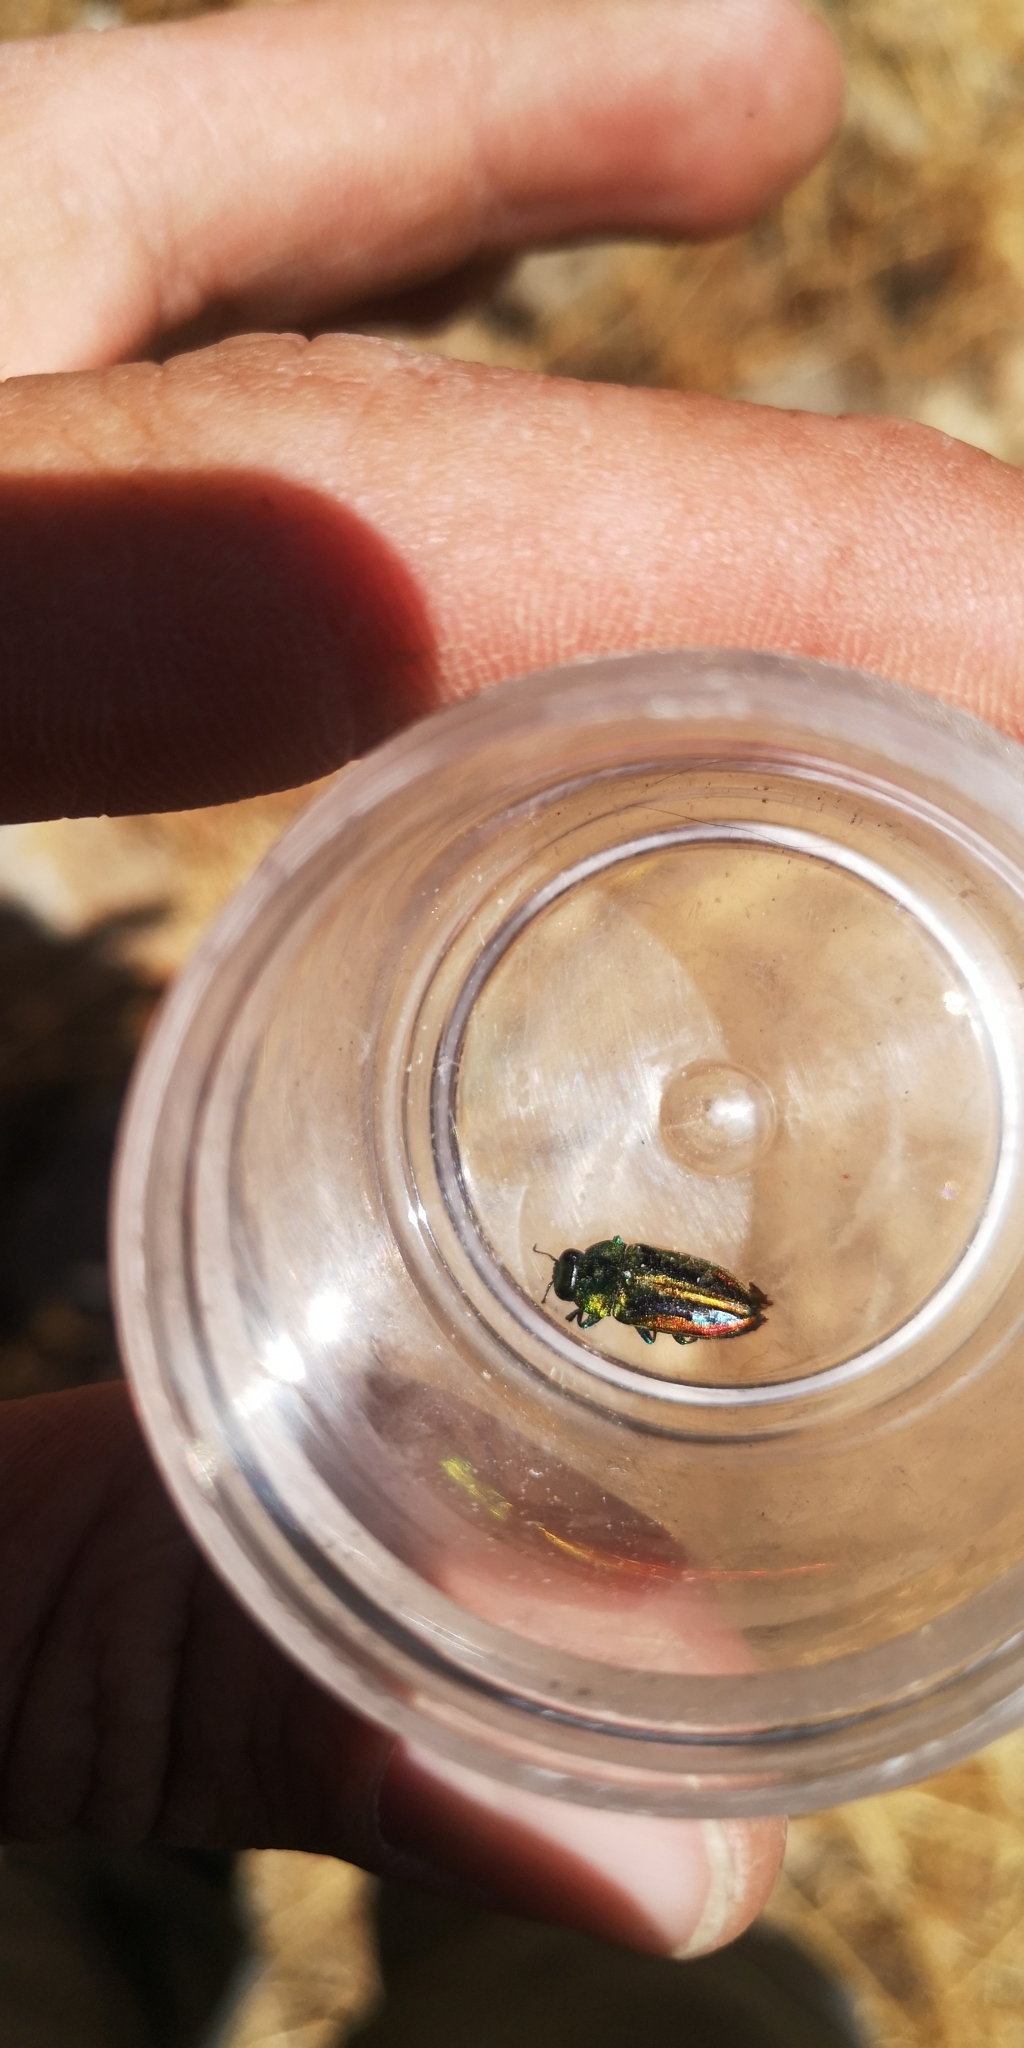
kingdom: Animalia
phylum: Arthropoda
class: Insecta
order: Coleoptera
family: Buprestidae
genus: Cylindrophora
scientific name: Cylindrophora
